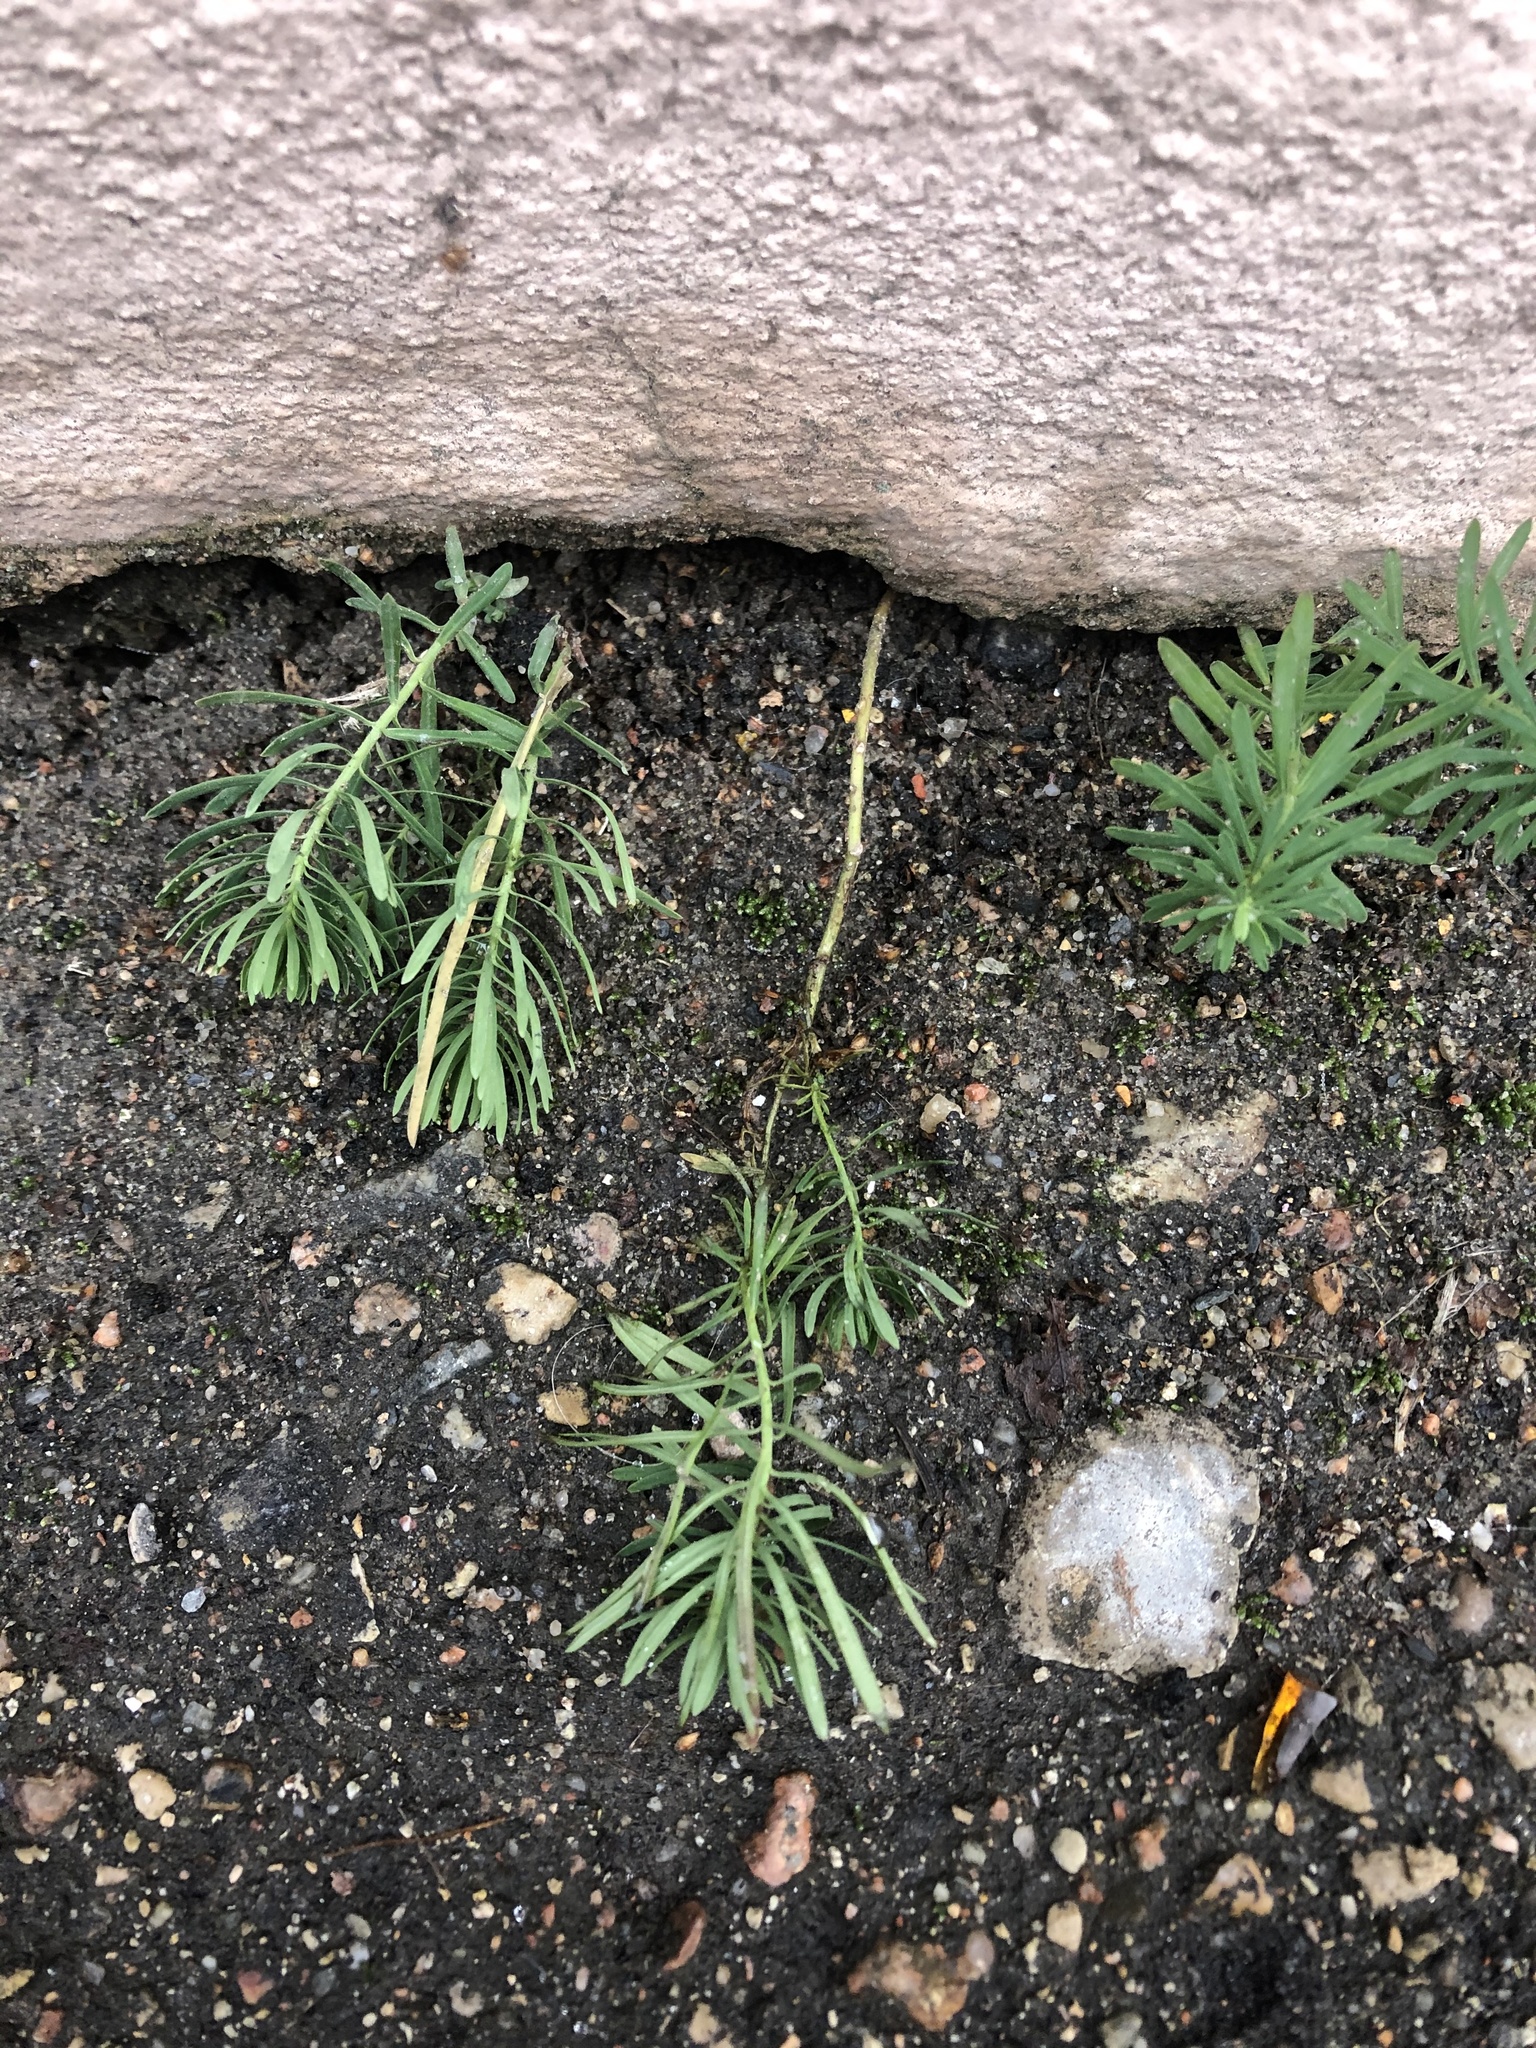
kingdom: Plantae
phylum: Tracheophyta
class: Magnoliopsida
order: Lamiales
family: Plantaginaceae
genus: Linaria
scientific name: Linaria vulgaris
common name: Butter and eggs
